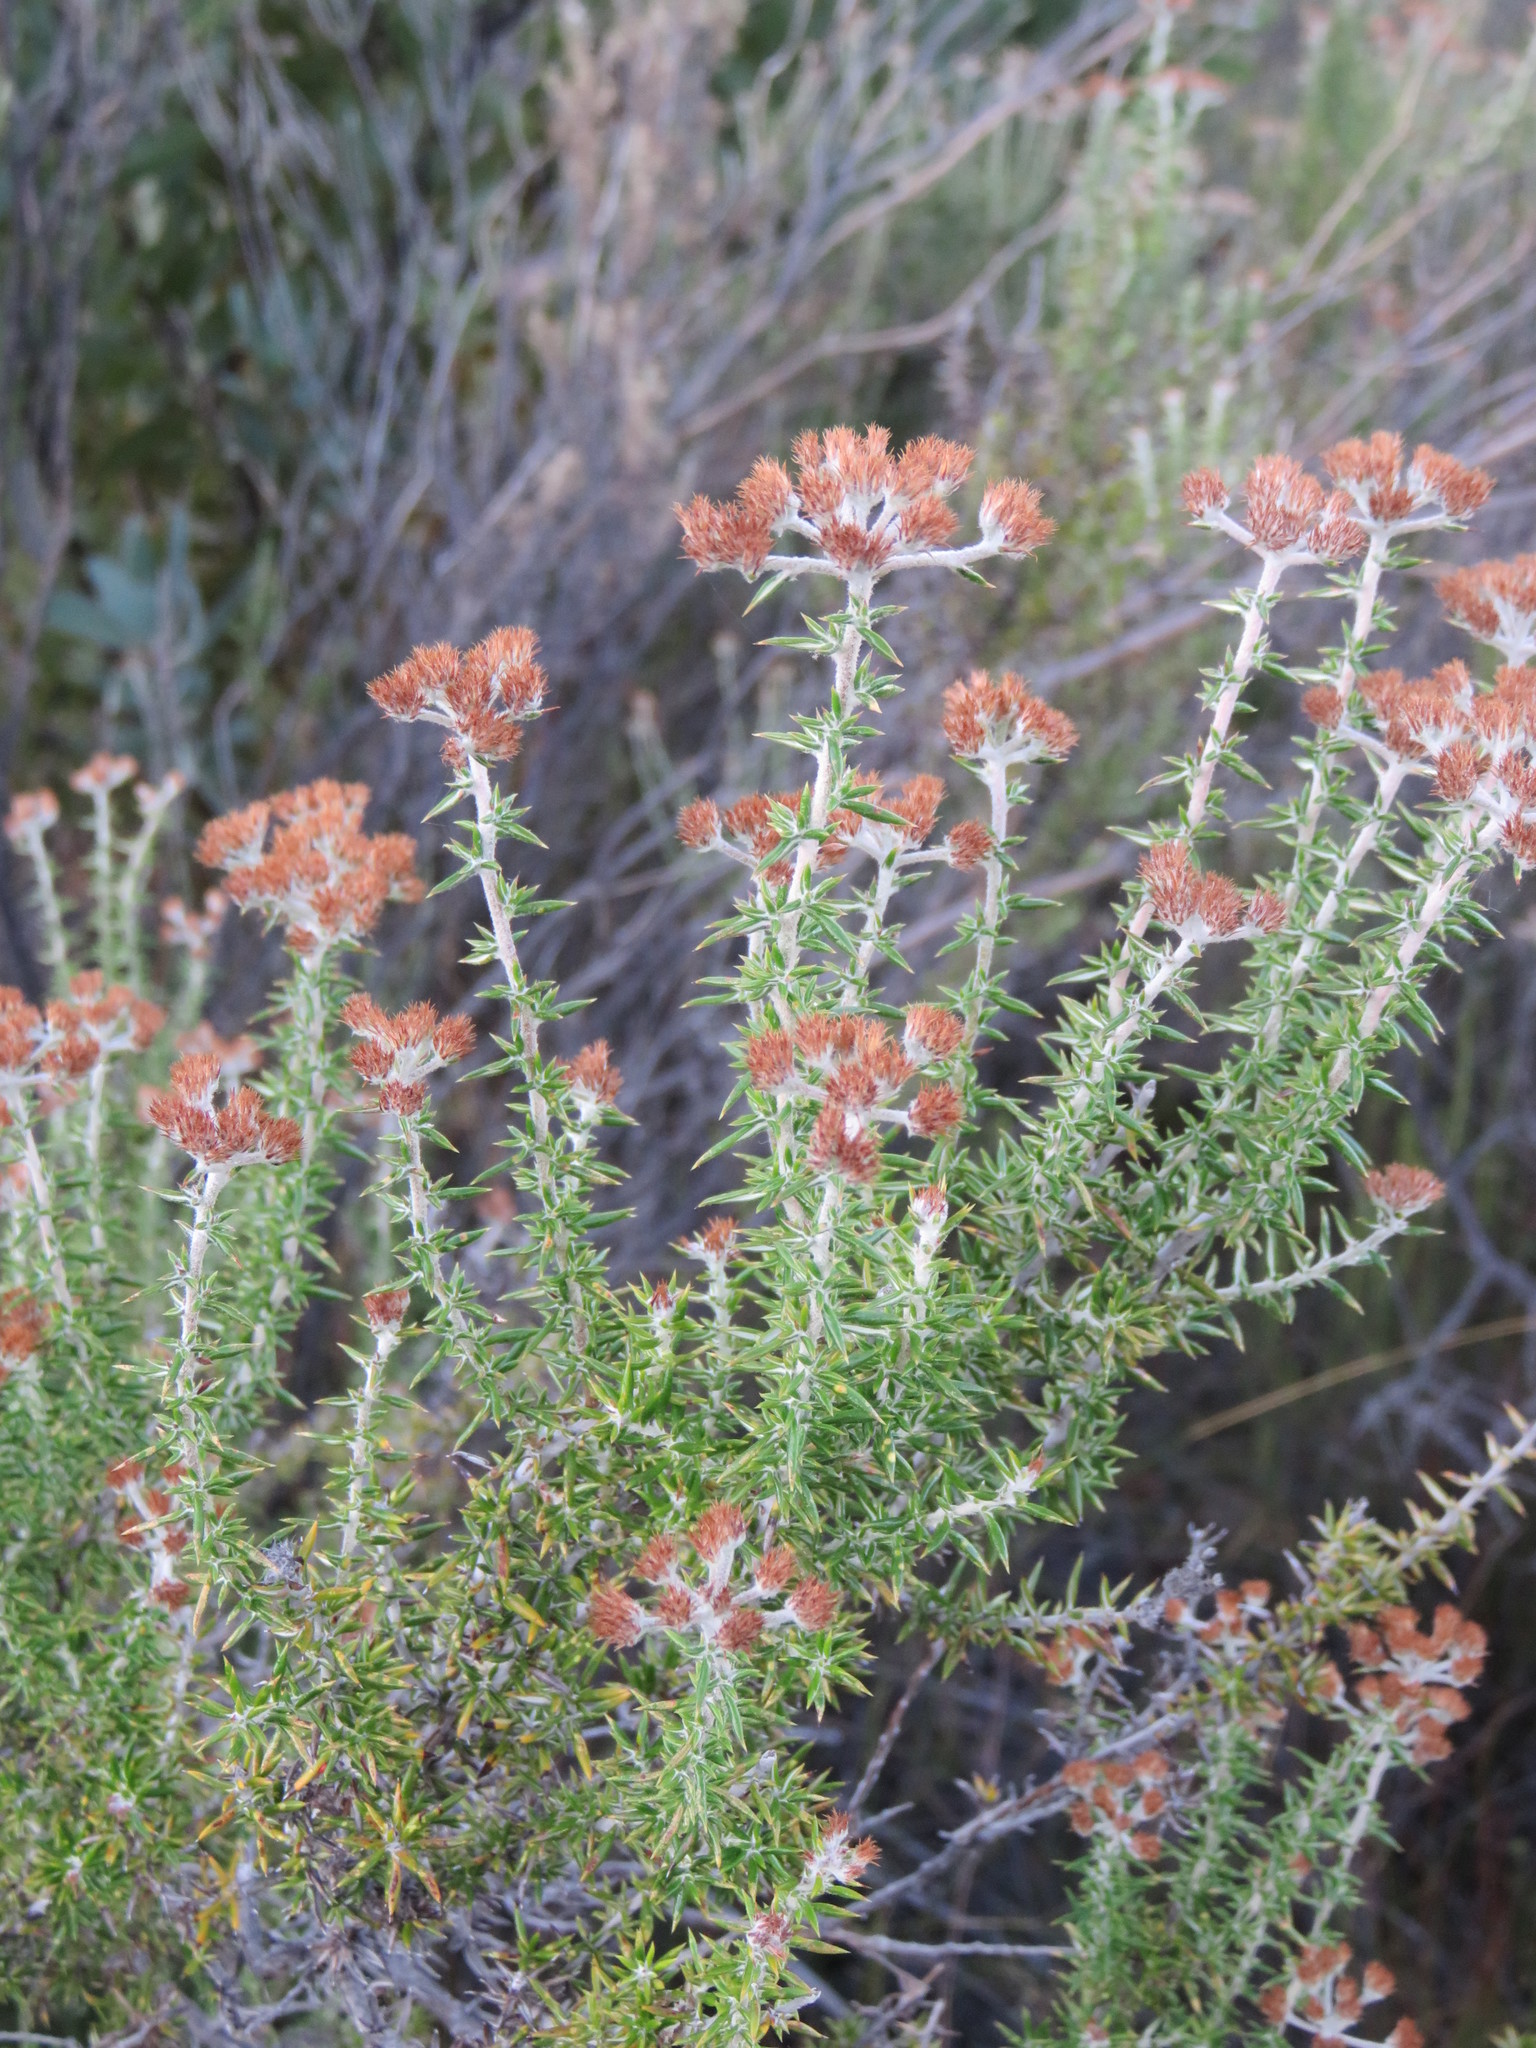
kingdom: Plantae
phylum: Tracheophyta
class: Magnoliopsida
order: Asterales
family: Asteraceae
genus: Metalasia
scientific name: Metalasia dregeana
